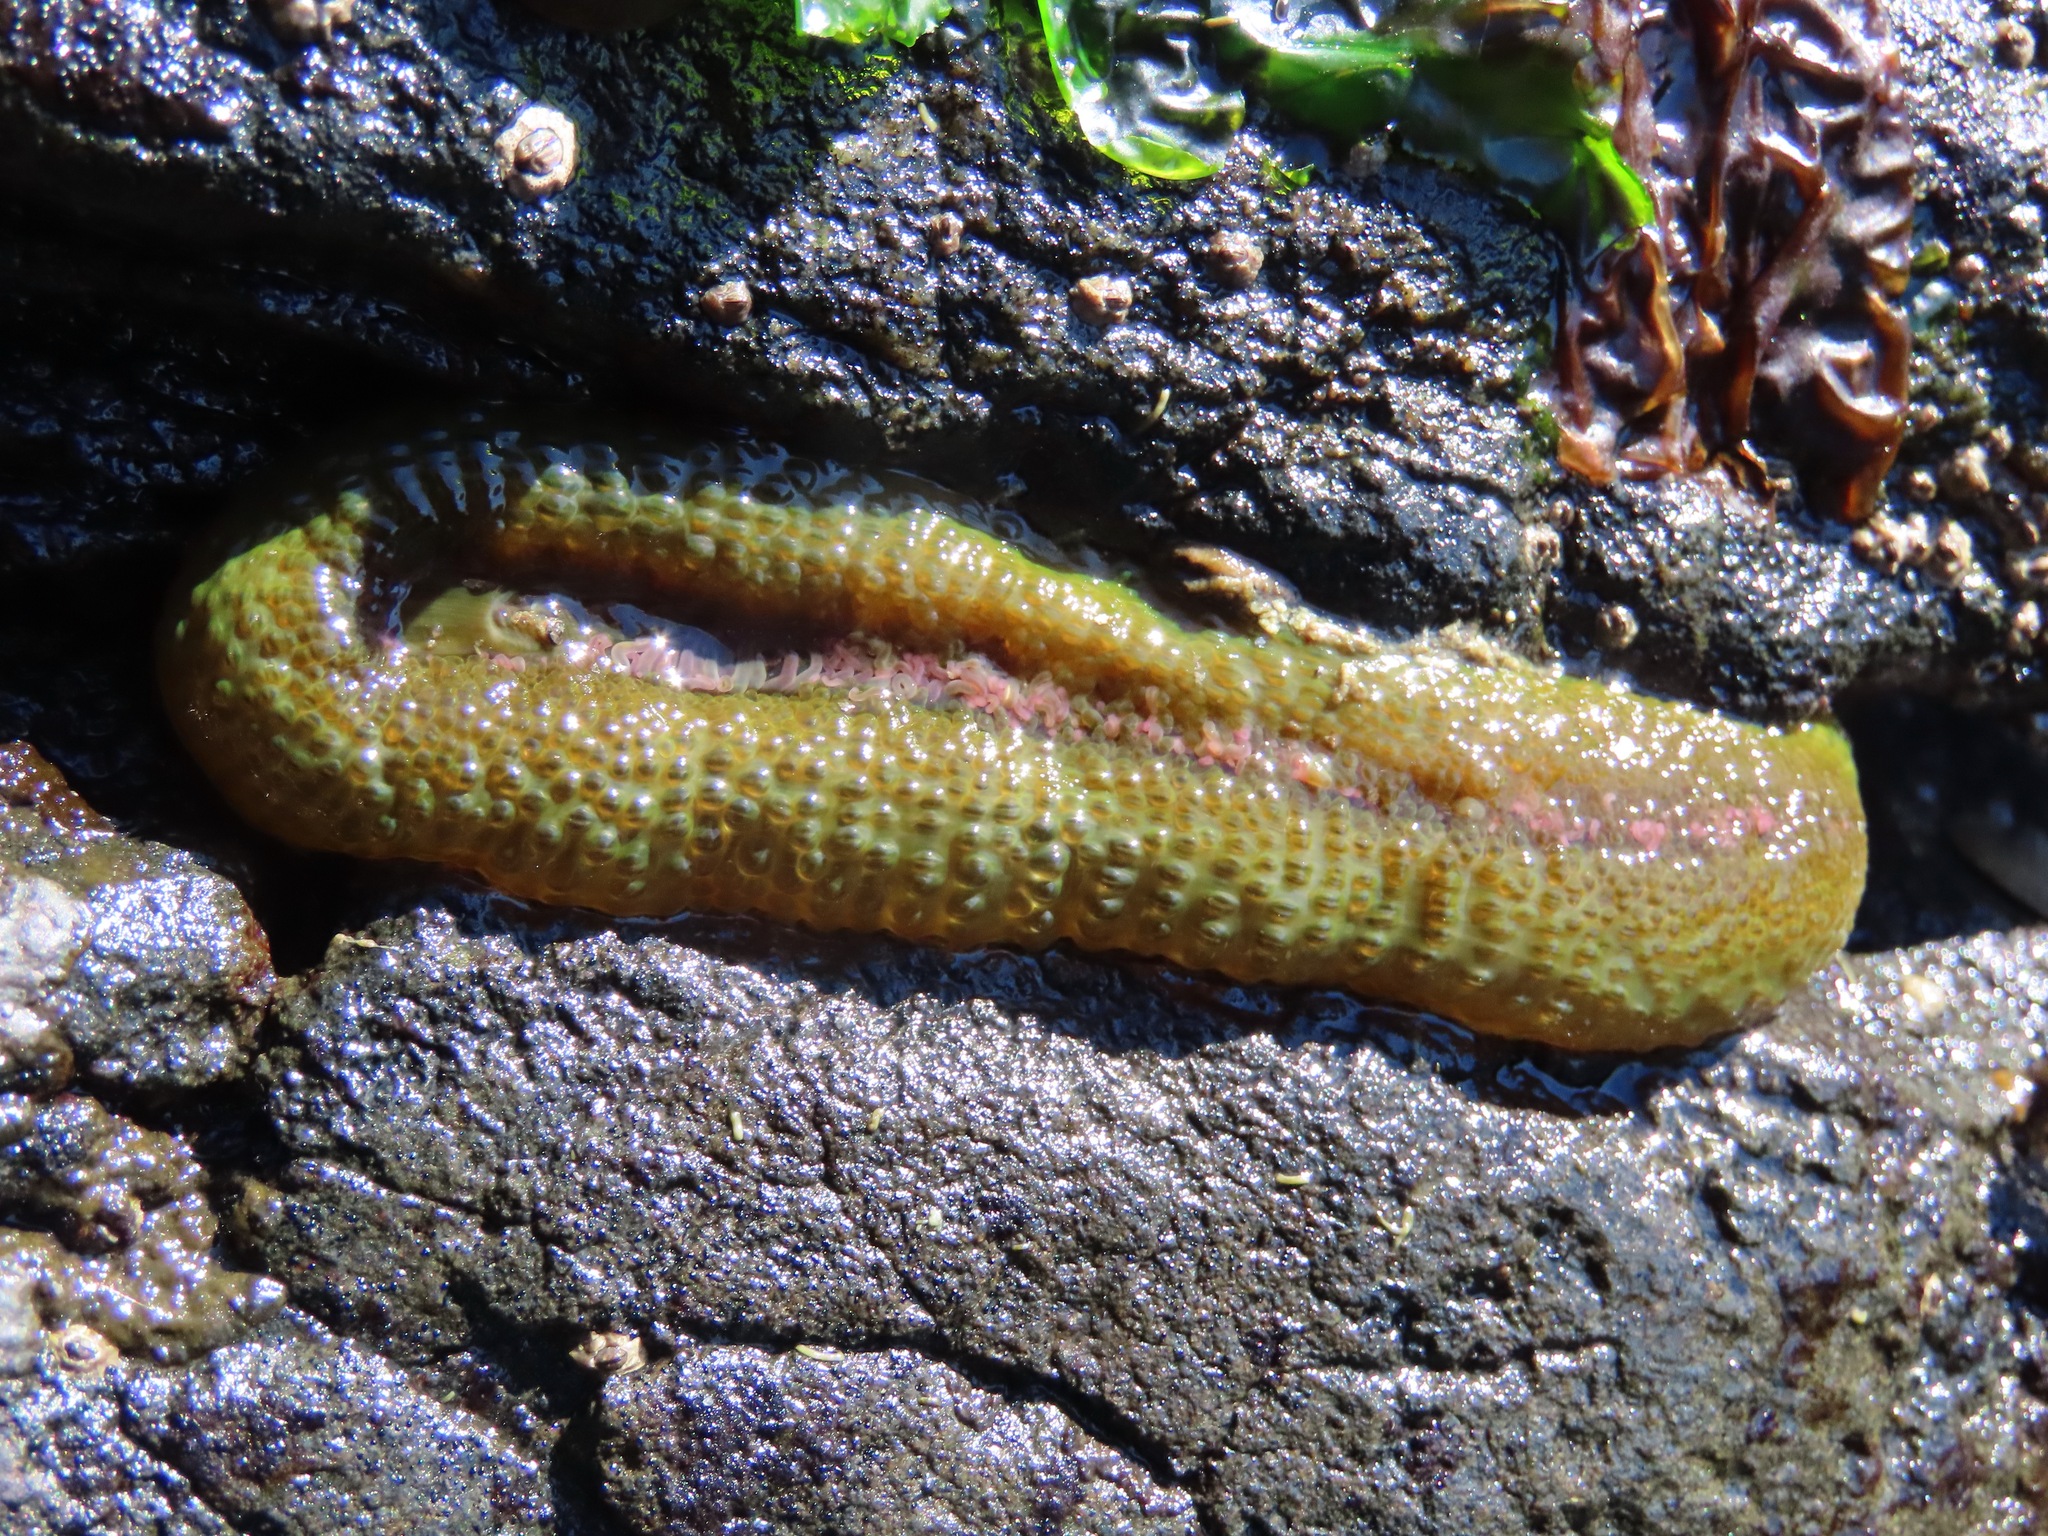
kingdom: Animalia
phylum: Cnidaria
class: Anthozoa
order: Actiniaria
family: Actiniidae
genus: Anthopleura
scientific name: Anthopleura elegantissima
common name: Clonal anemone
